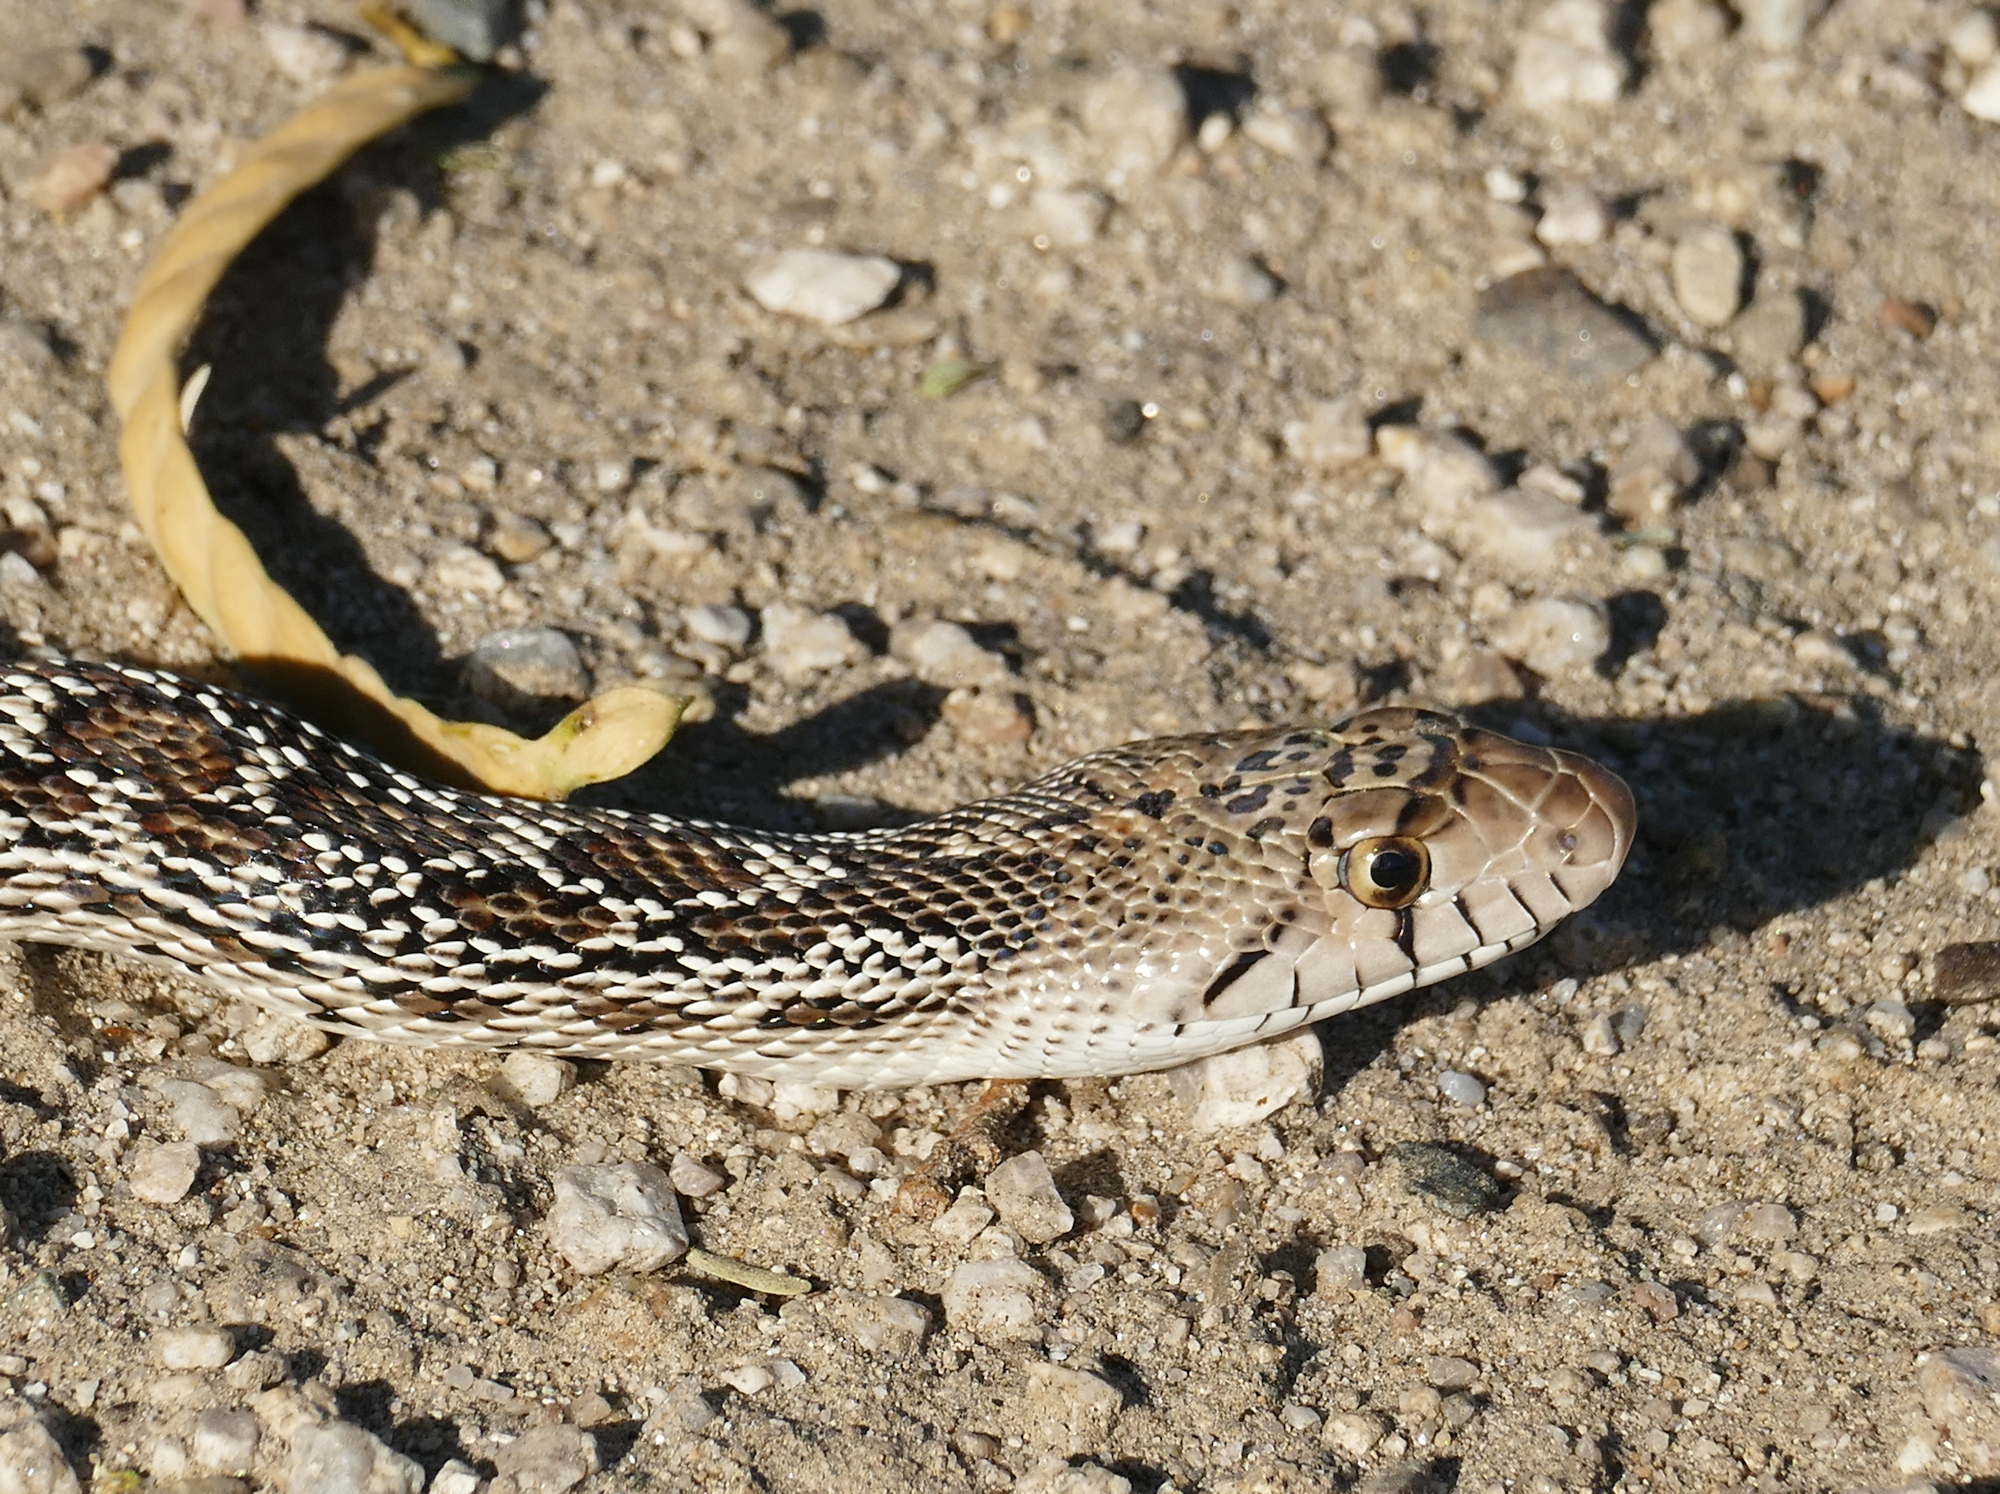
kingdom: Animalia
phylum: Chordata
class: Squamata
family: Colubridae
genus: Pituophis
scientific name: Pituophis catenifer
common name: Gopher snake
